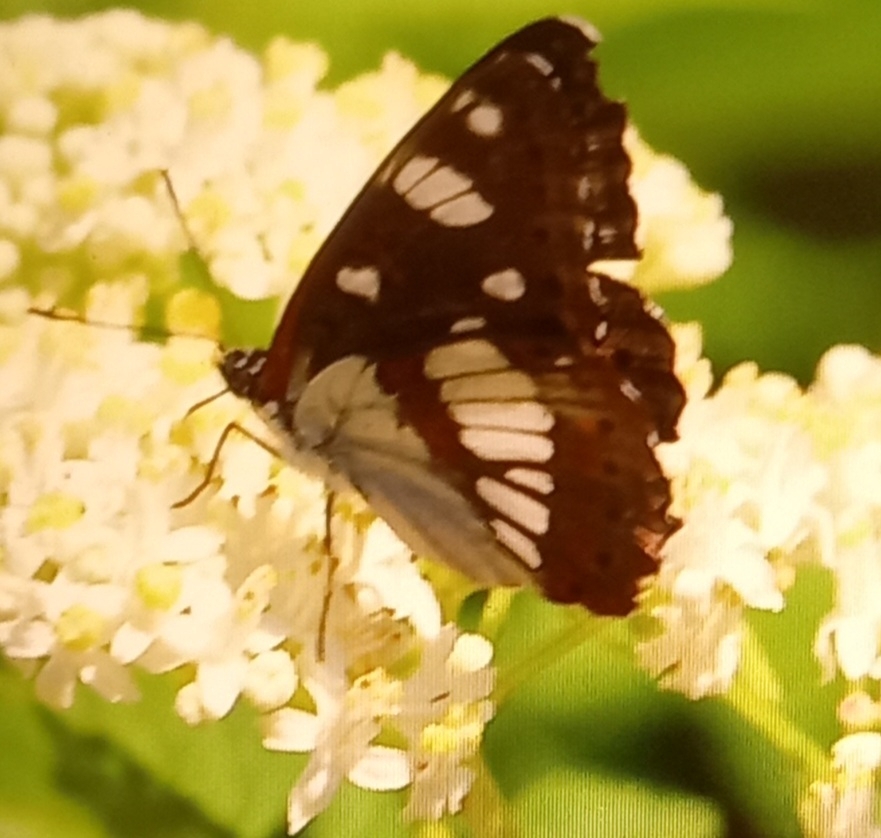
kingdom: Animalia
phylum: Arthropoda
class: Insecta
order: Lepidoptera
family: Nymphalidae
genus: Limenitis
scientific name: Limenitis reducta
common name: Southern white admiral
